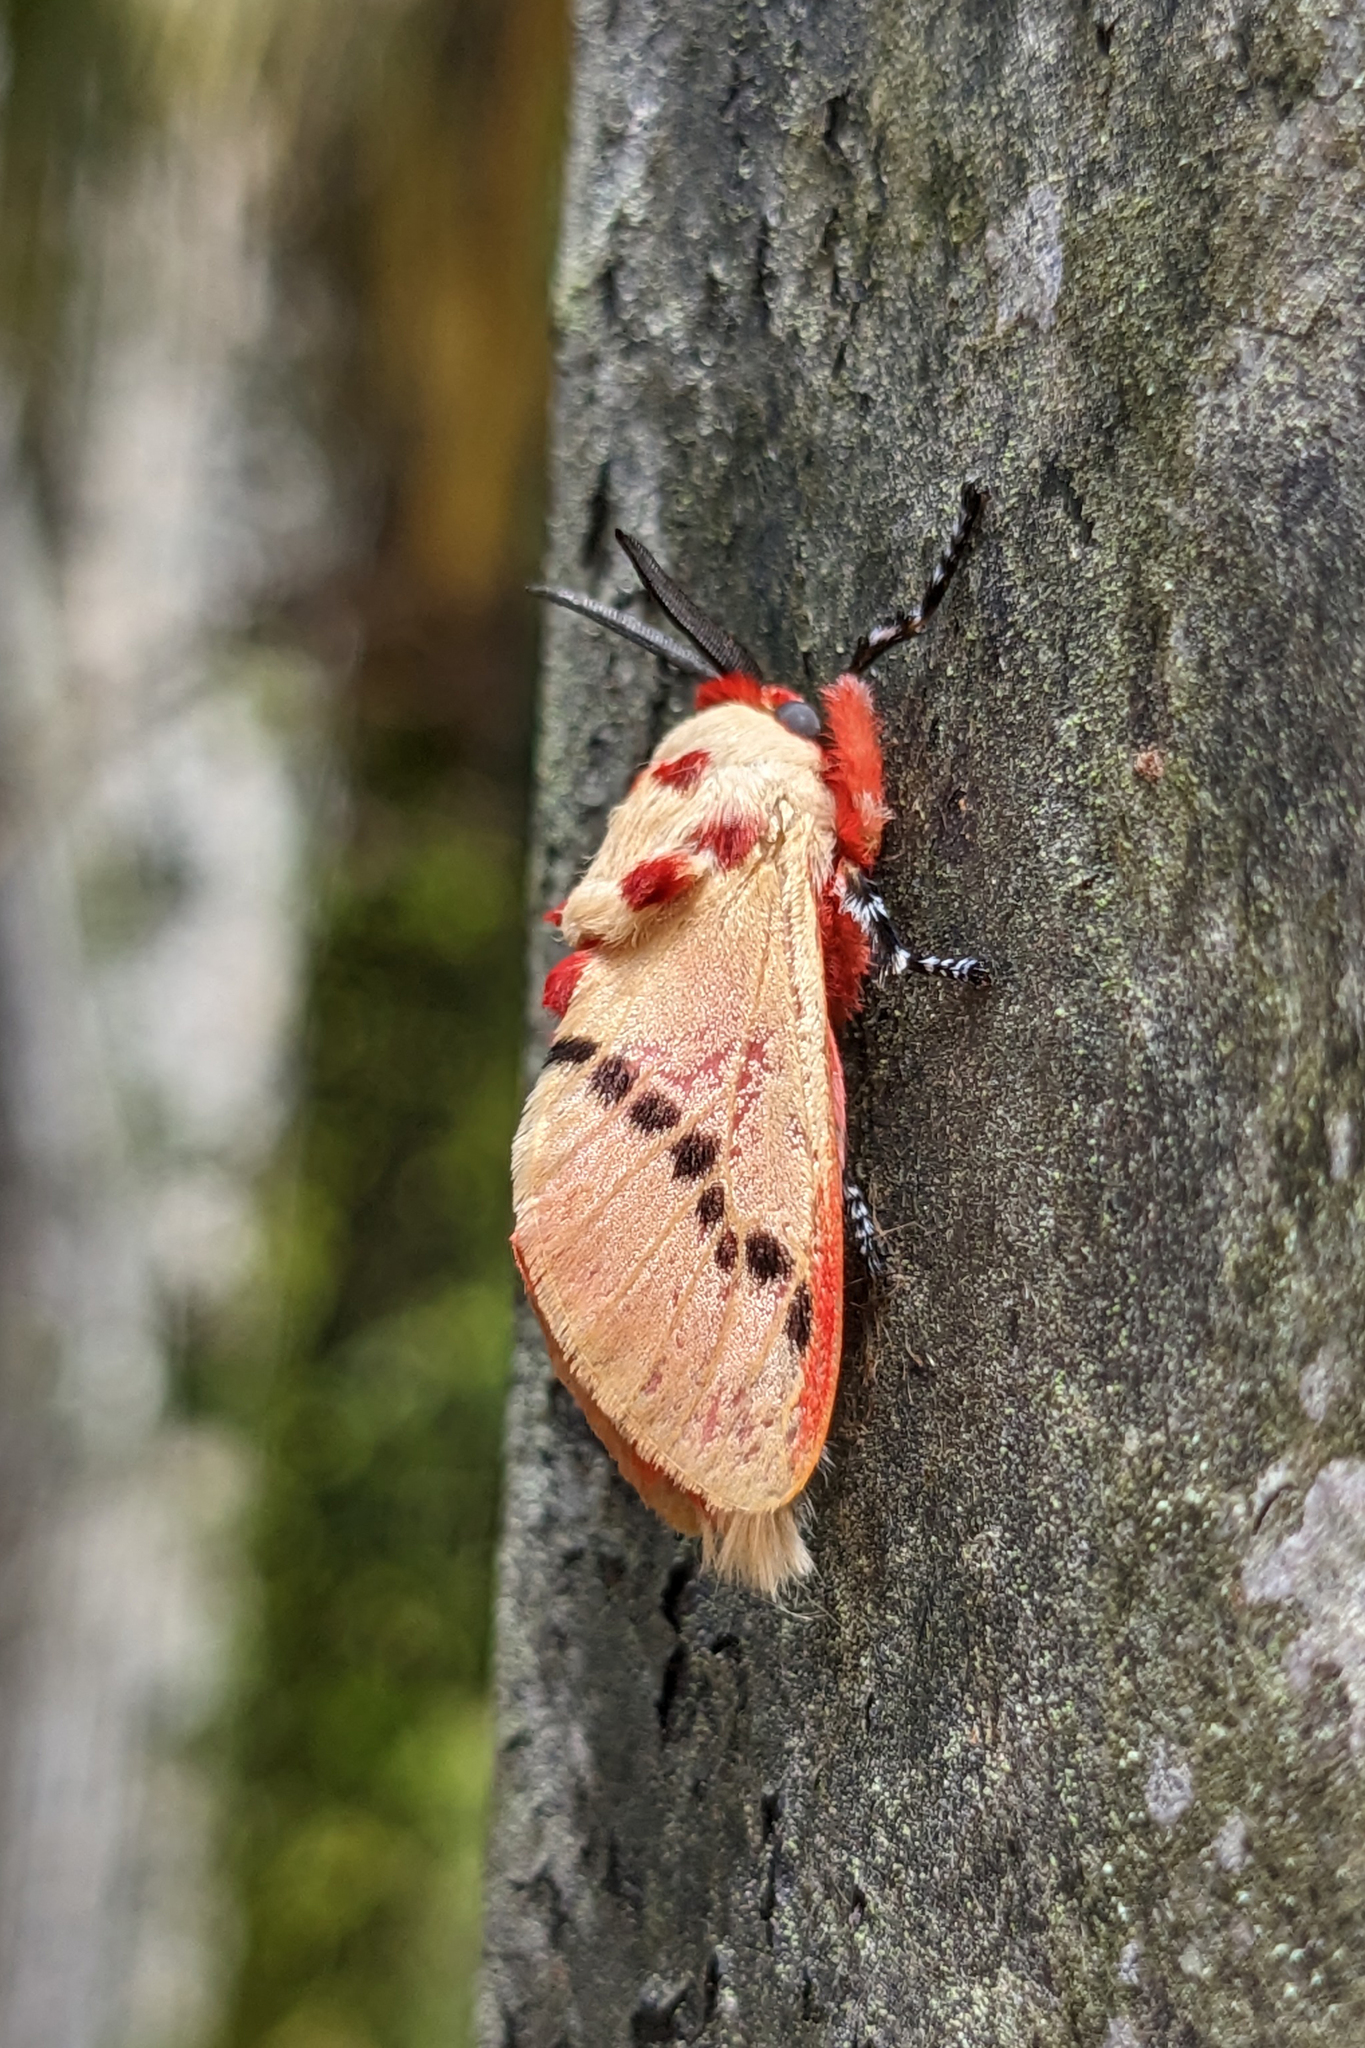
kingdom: Animalia
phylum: Arthropoda
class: Insecta
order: Lepidoptera
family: Megalopygidae
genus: Trosia
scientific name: Trosia dimas
